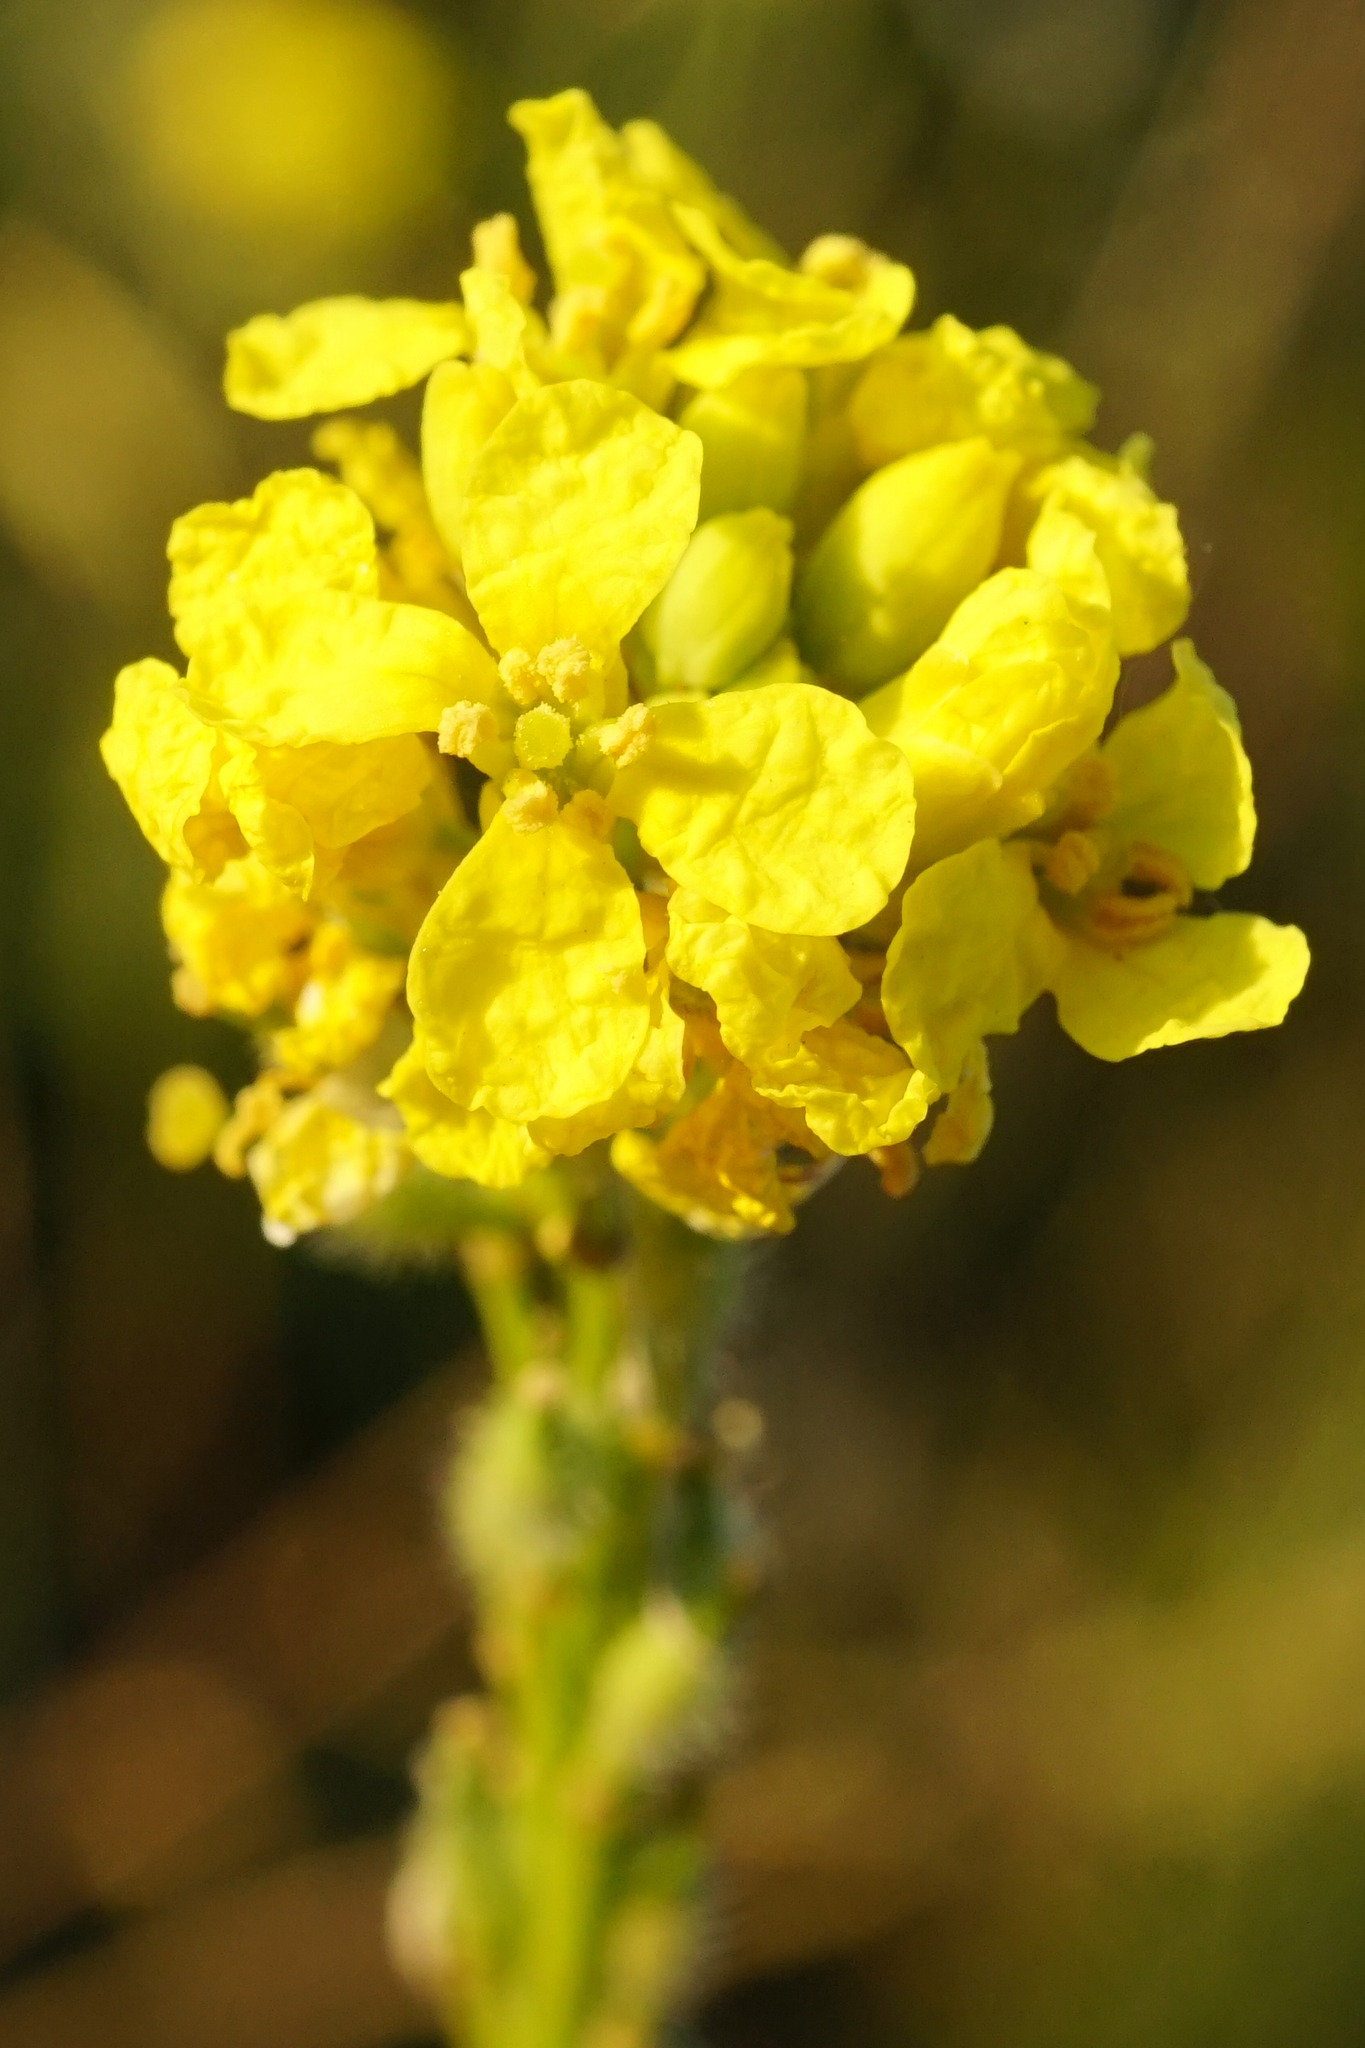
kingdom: Plantae
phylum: Tracheophyta
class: Magnoliopsida
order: Brassicales
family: Brassicaceae
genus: Rapistrum
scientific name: Rapistrum rugosum
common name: Annual bastardcabbage
